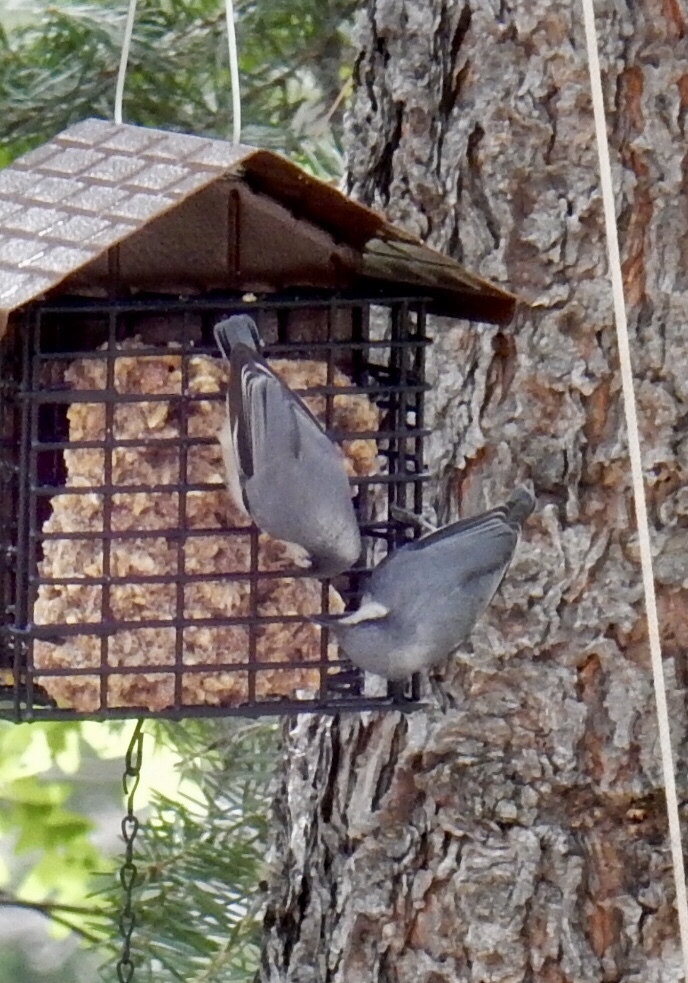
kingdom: Animalia
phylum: Chordata
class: Aves
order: Passeriformes
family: Sittidae
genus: Sitta
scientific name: Sitta pygmaea
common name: Pygmy nuthatch
